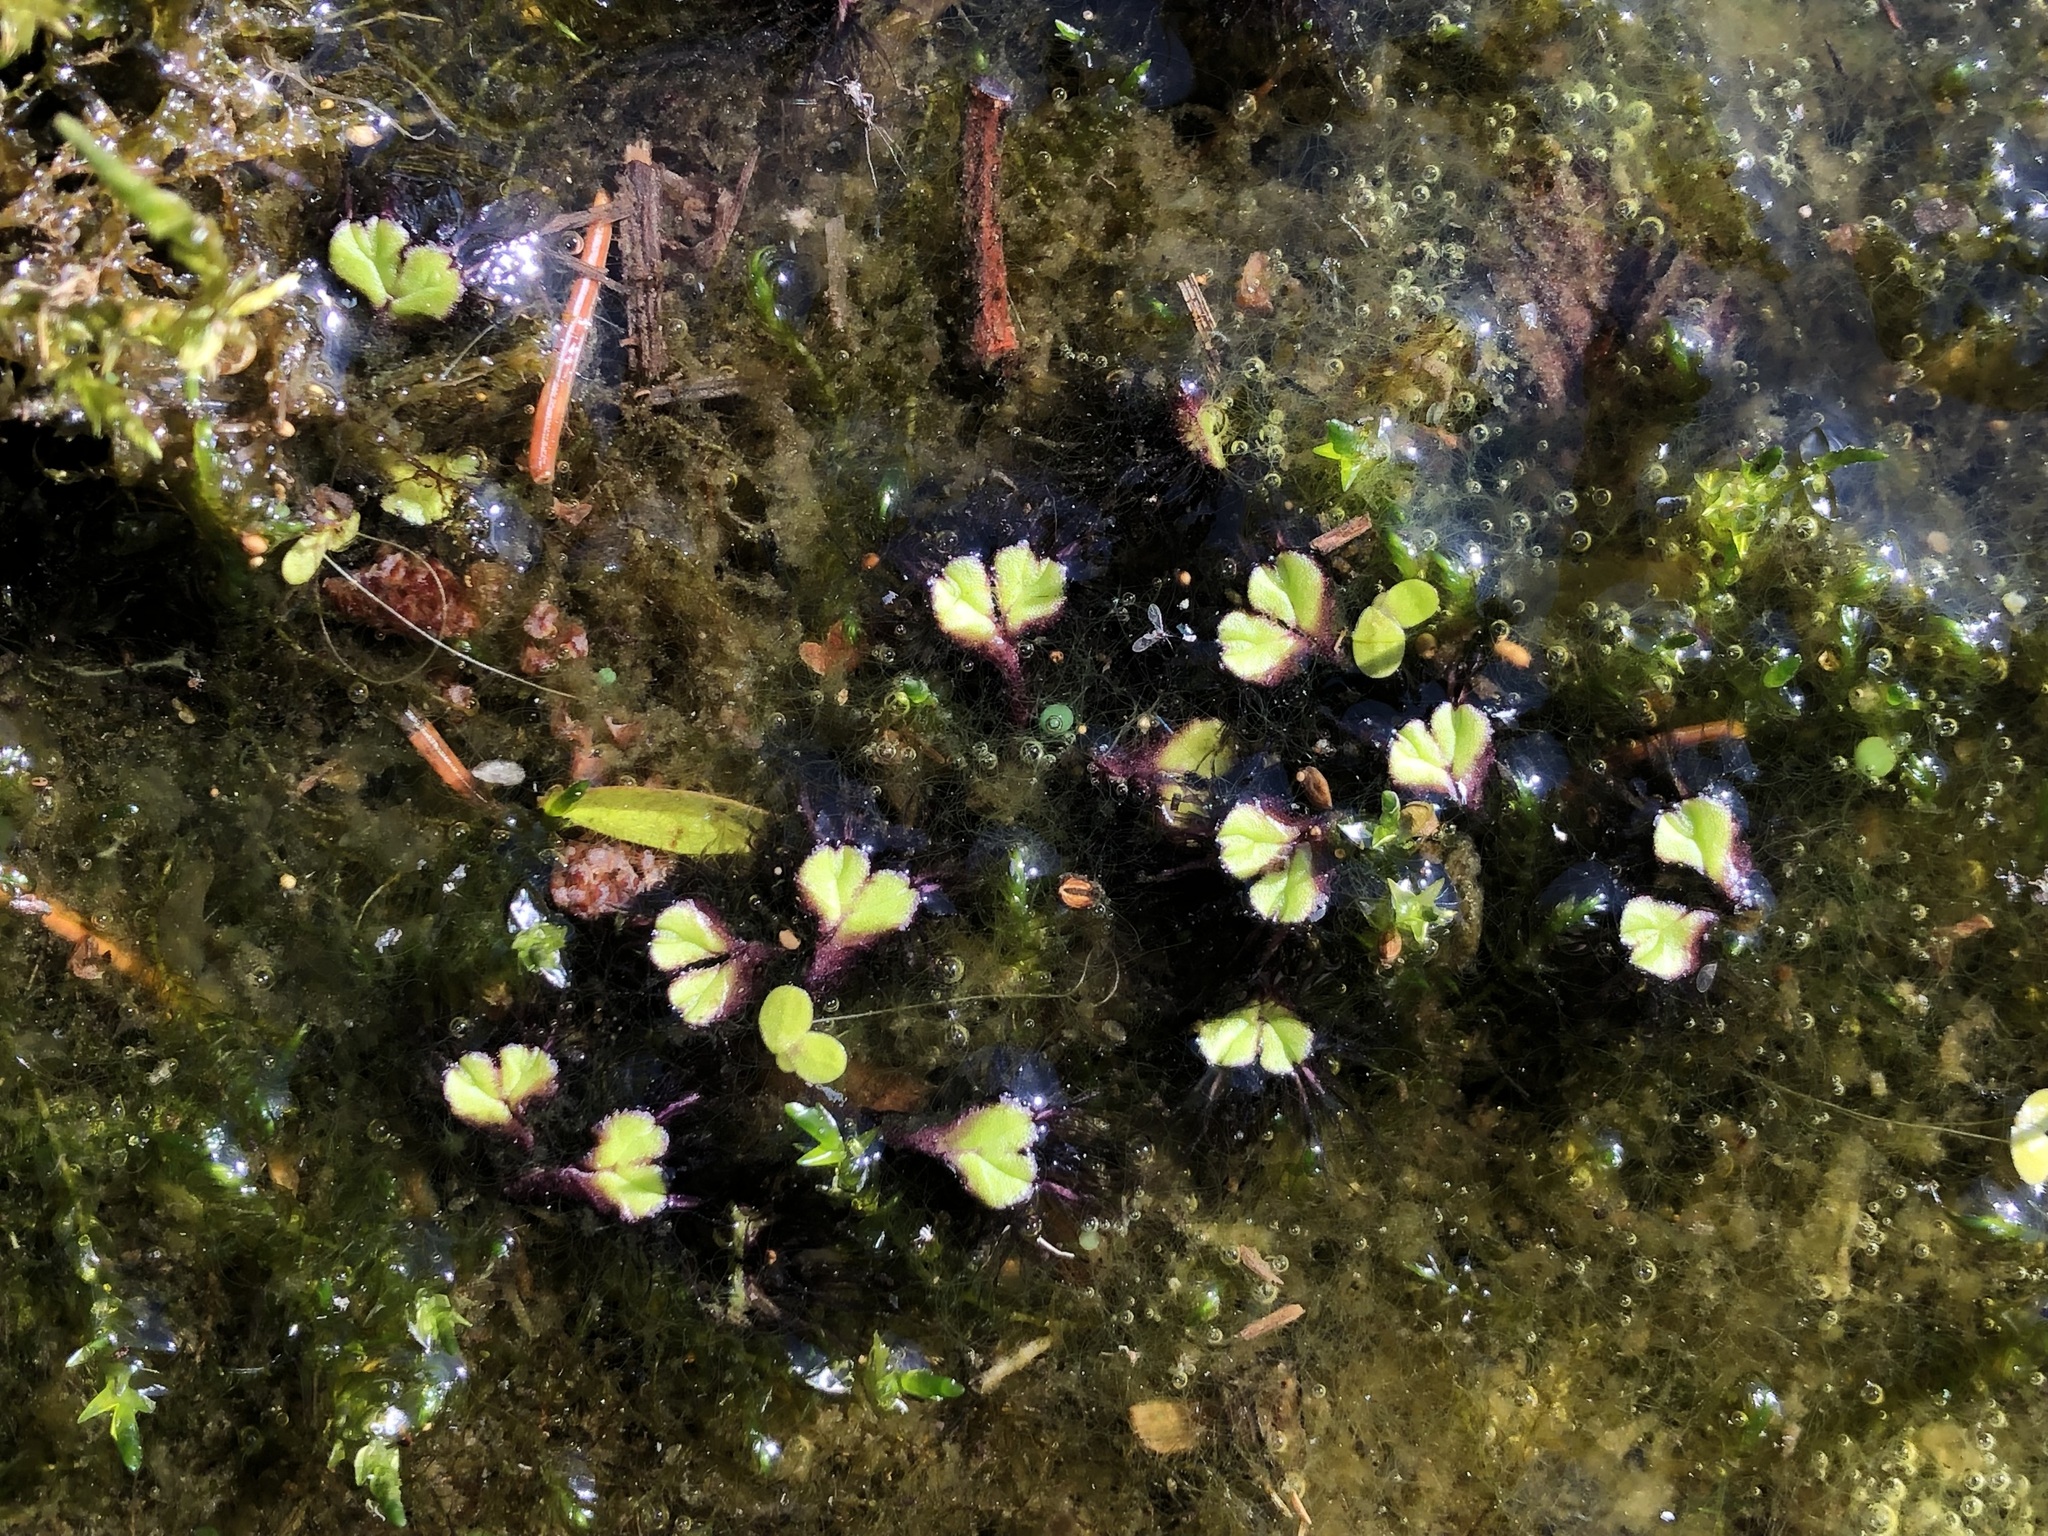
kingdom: Plantae
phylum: Marchantiophyta
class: Marchantiopsida
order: Marchantiales
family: Ricciaceae
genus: Ricciocarpos
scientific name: Ricciocarpos natans
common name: Purple-fringed liverwort
